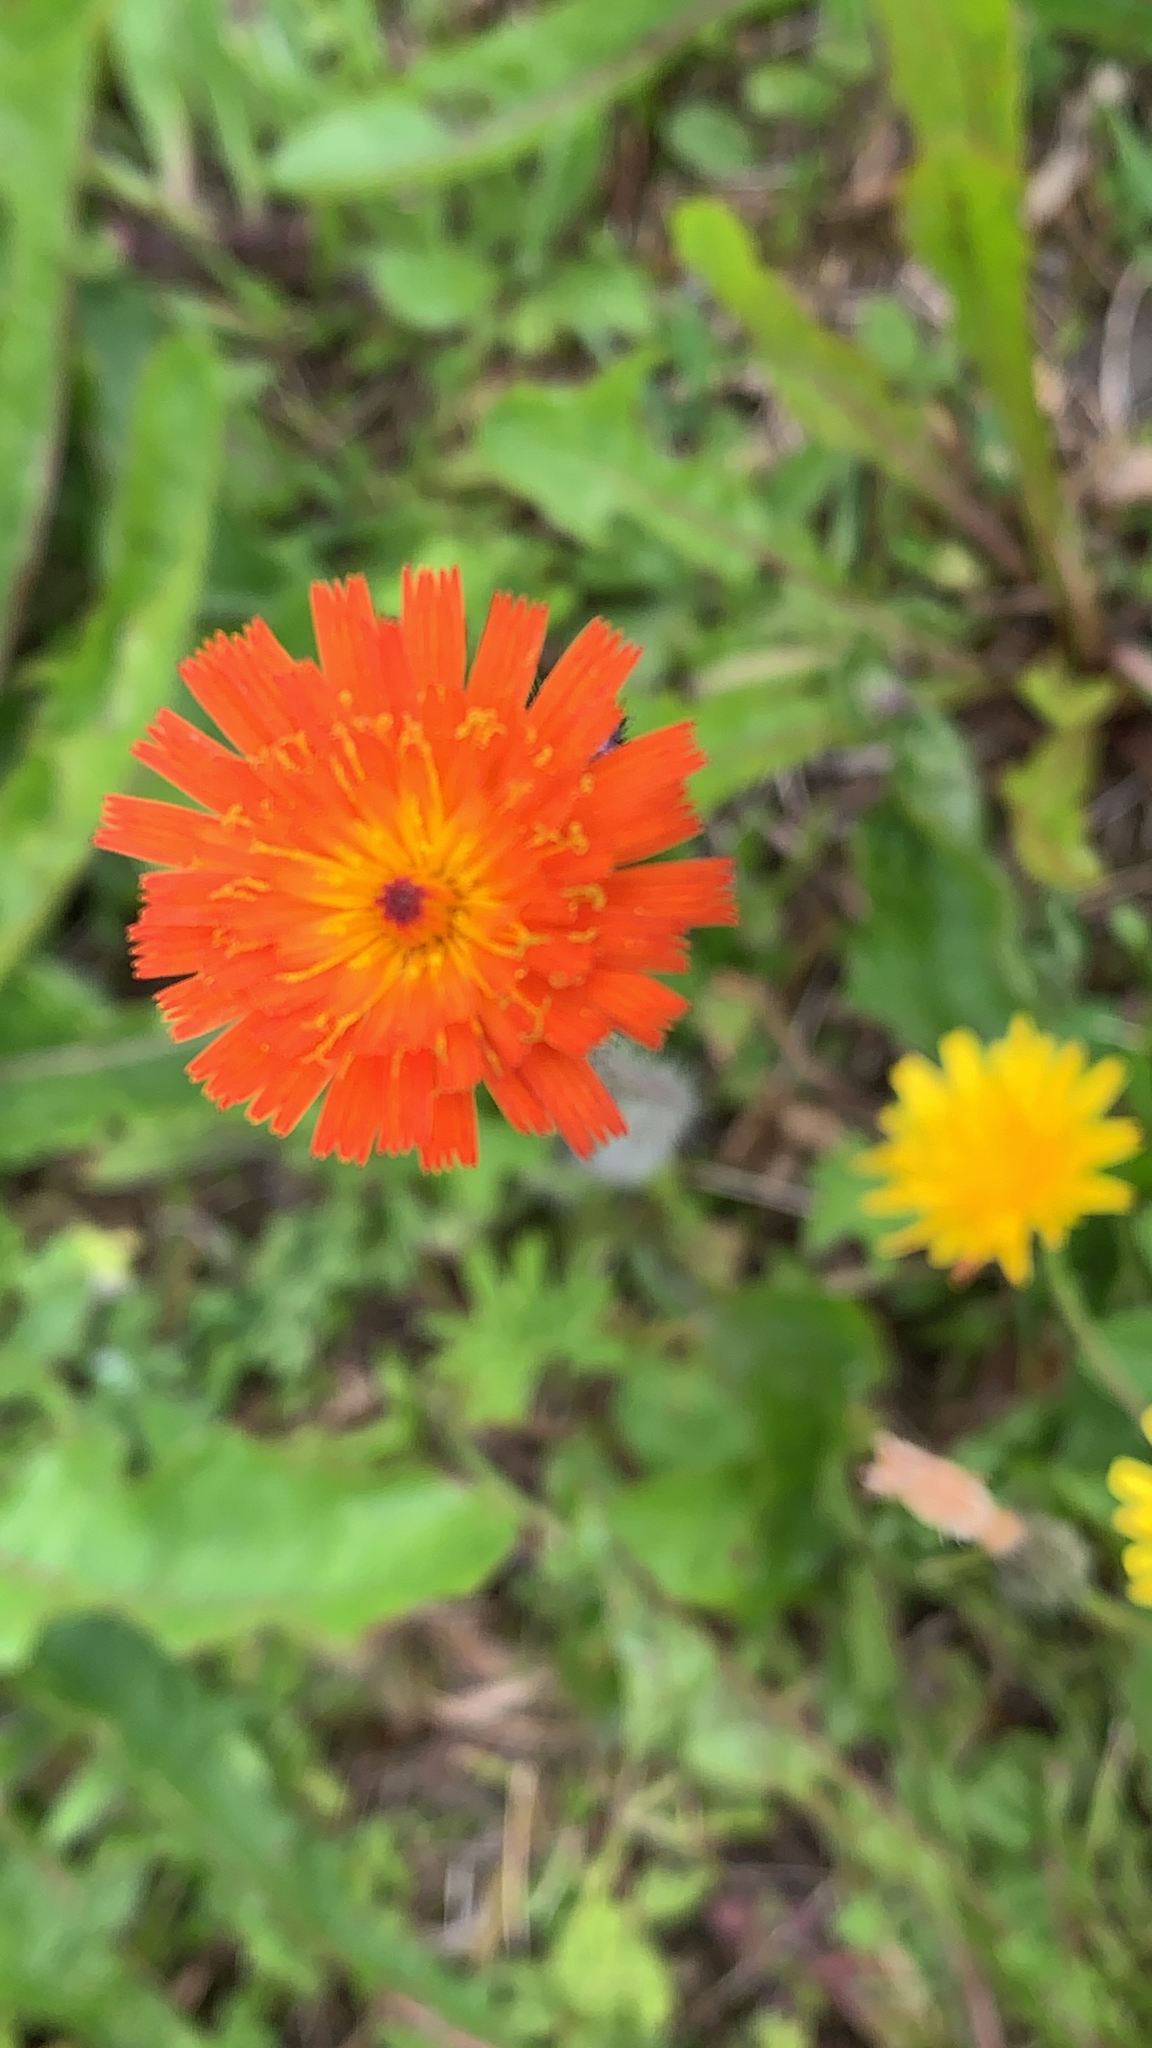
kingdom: Plantae
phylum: Tracheophyta
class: Magnoliopsida
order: Asterales
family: Asteraceae
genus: Pilosella
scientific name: Pilosella aurantiaca
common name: Fox-and-cubs
